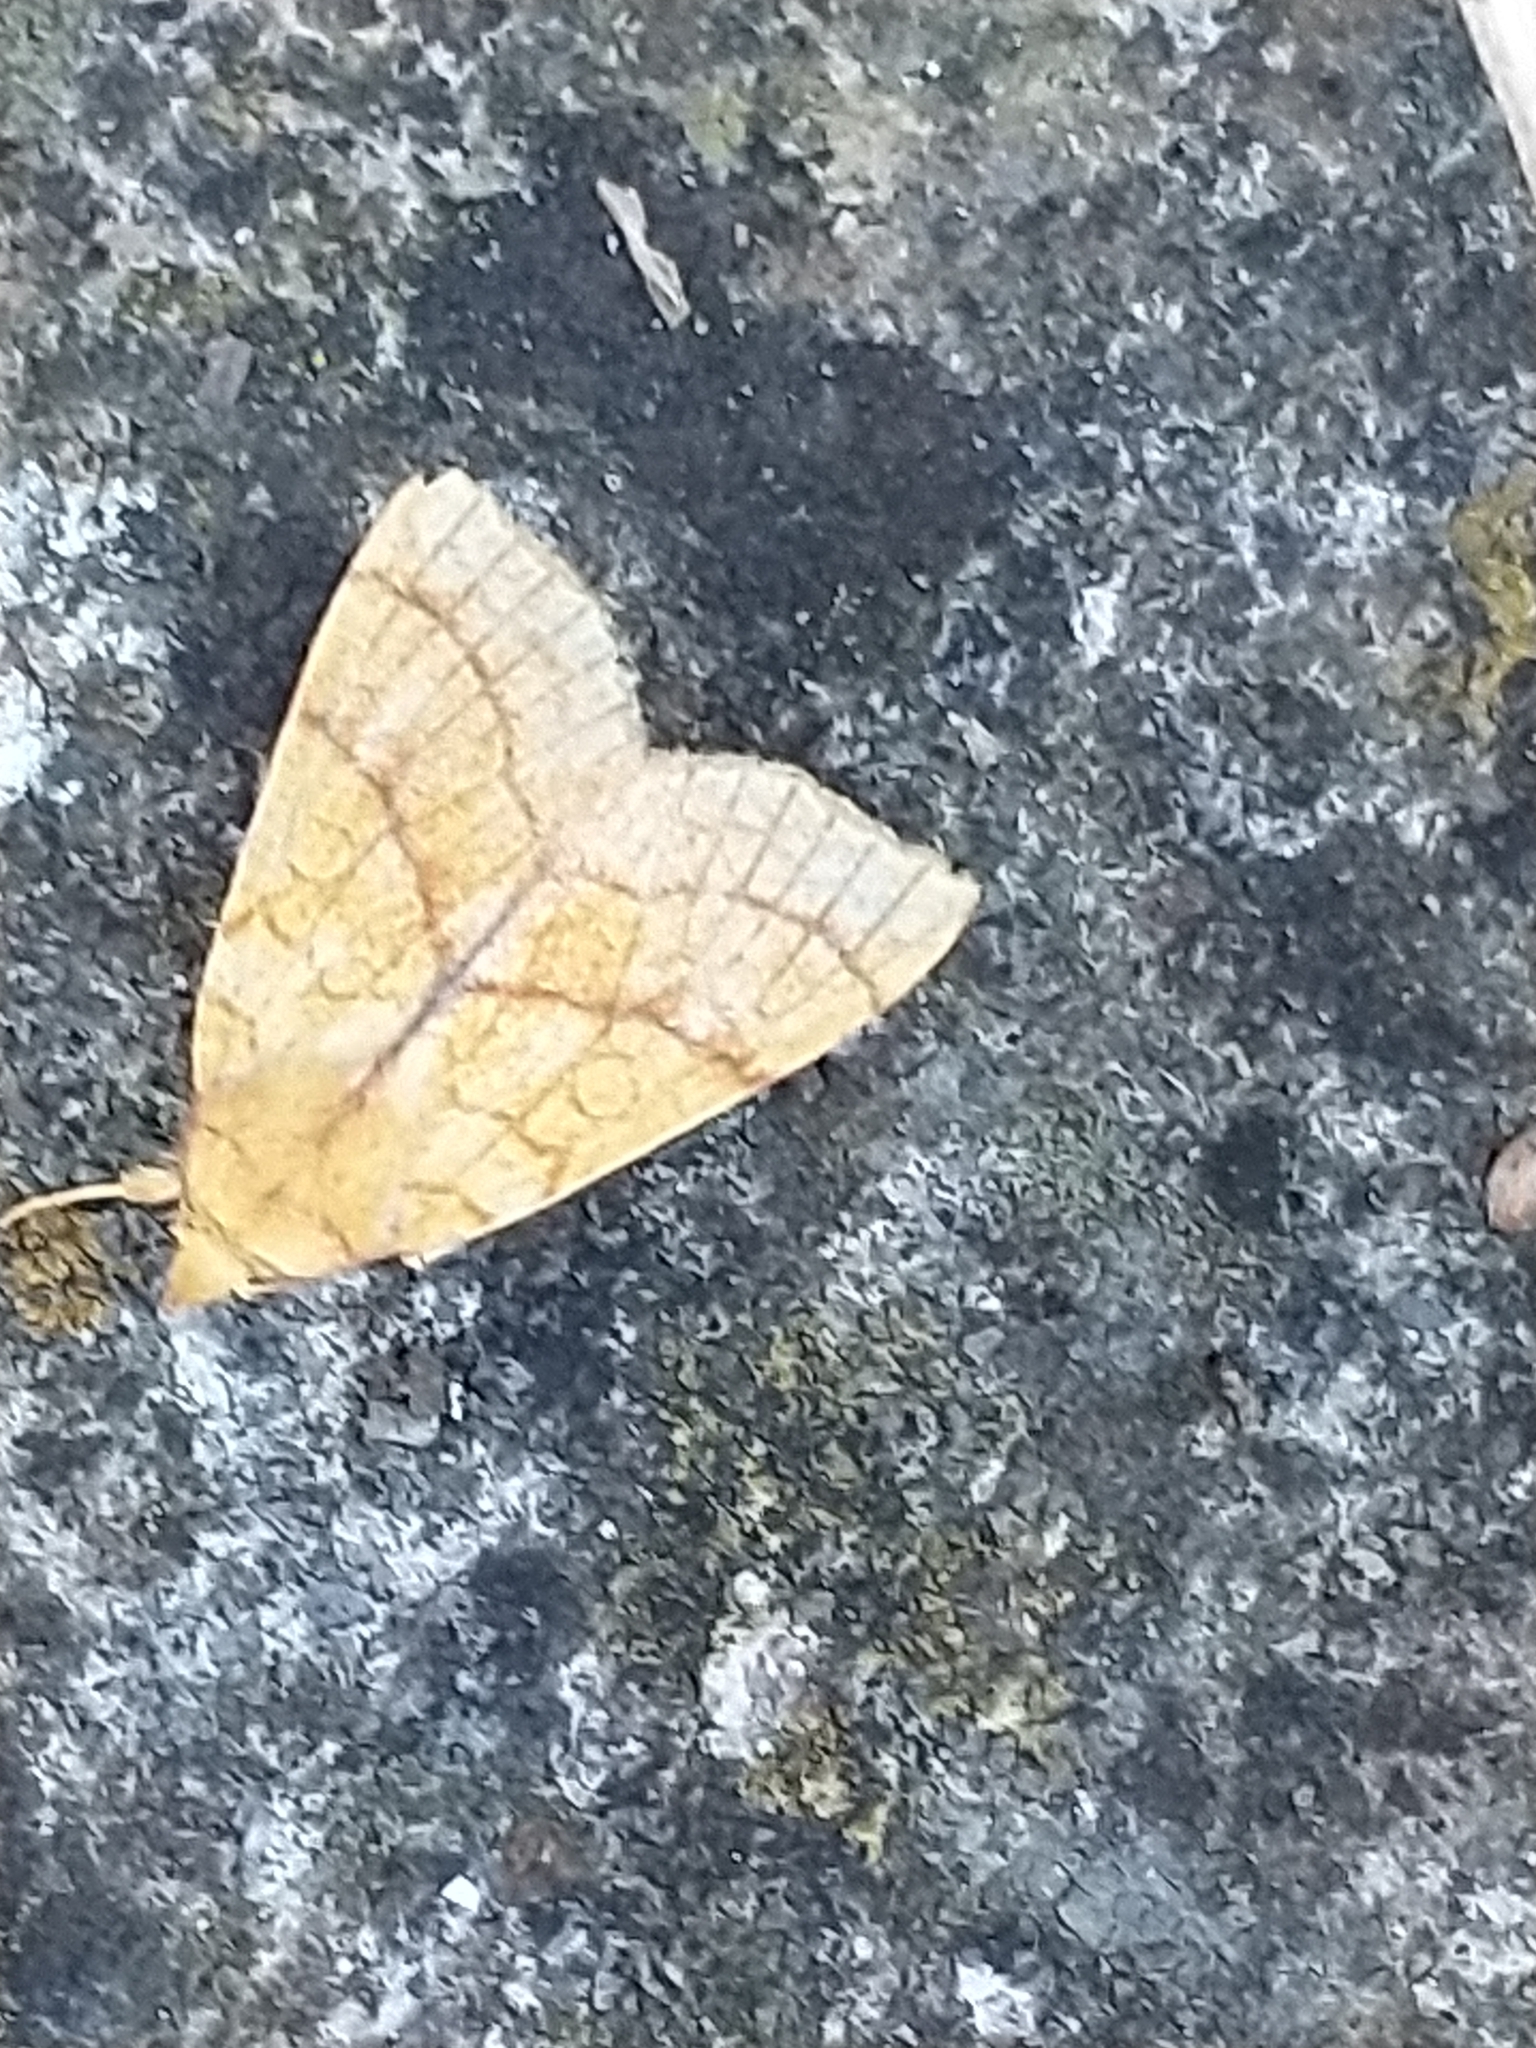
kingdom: Animalia
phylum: Arthropoda
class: Insecta
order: Lepidoptera
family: Noctuidae
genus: Tiliacea
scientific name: Tiliacea citrago
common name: Orange sallow
